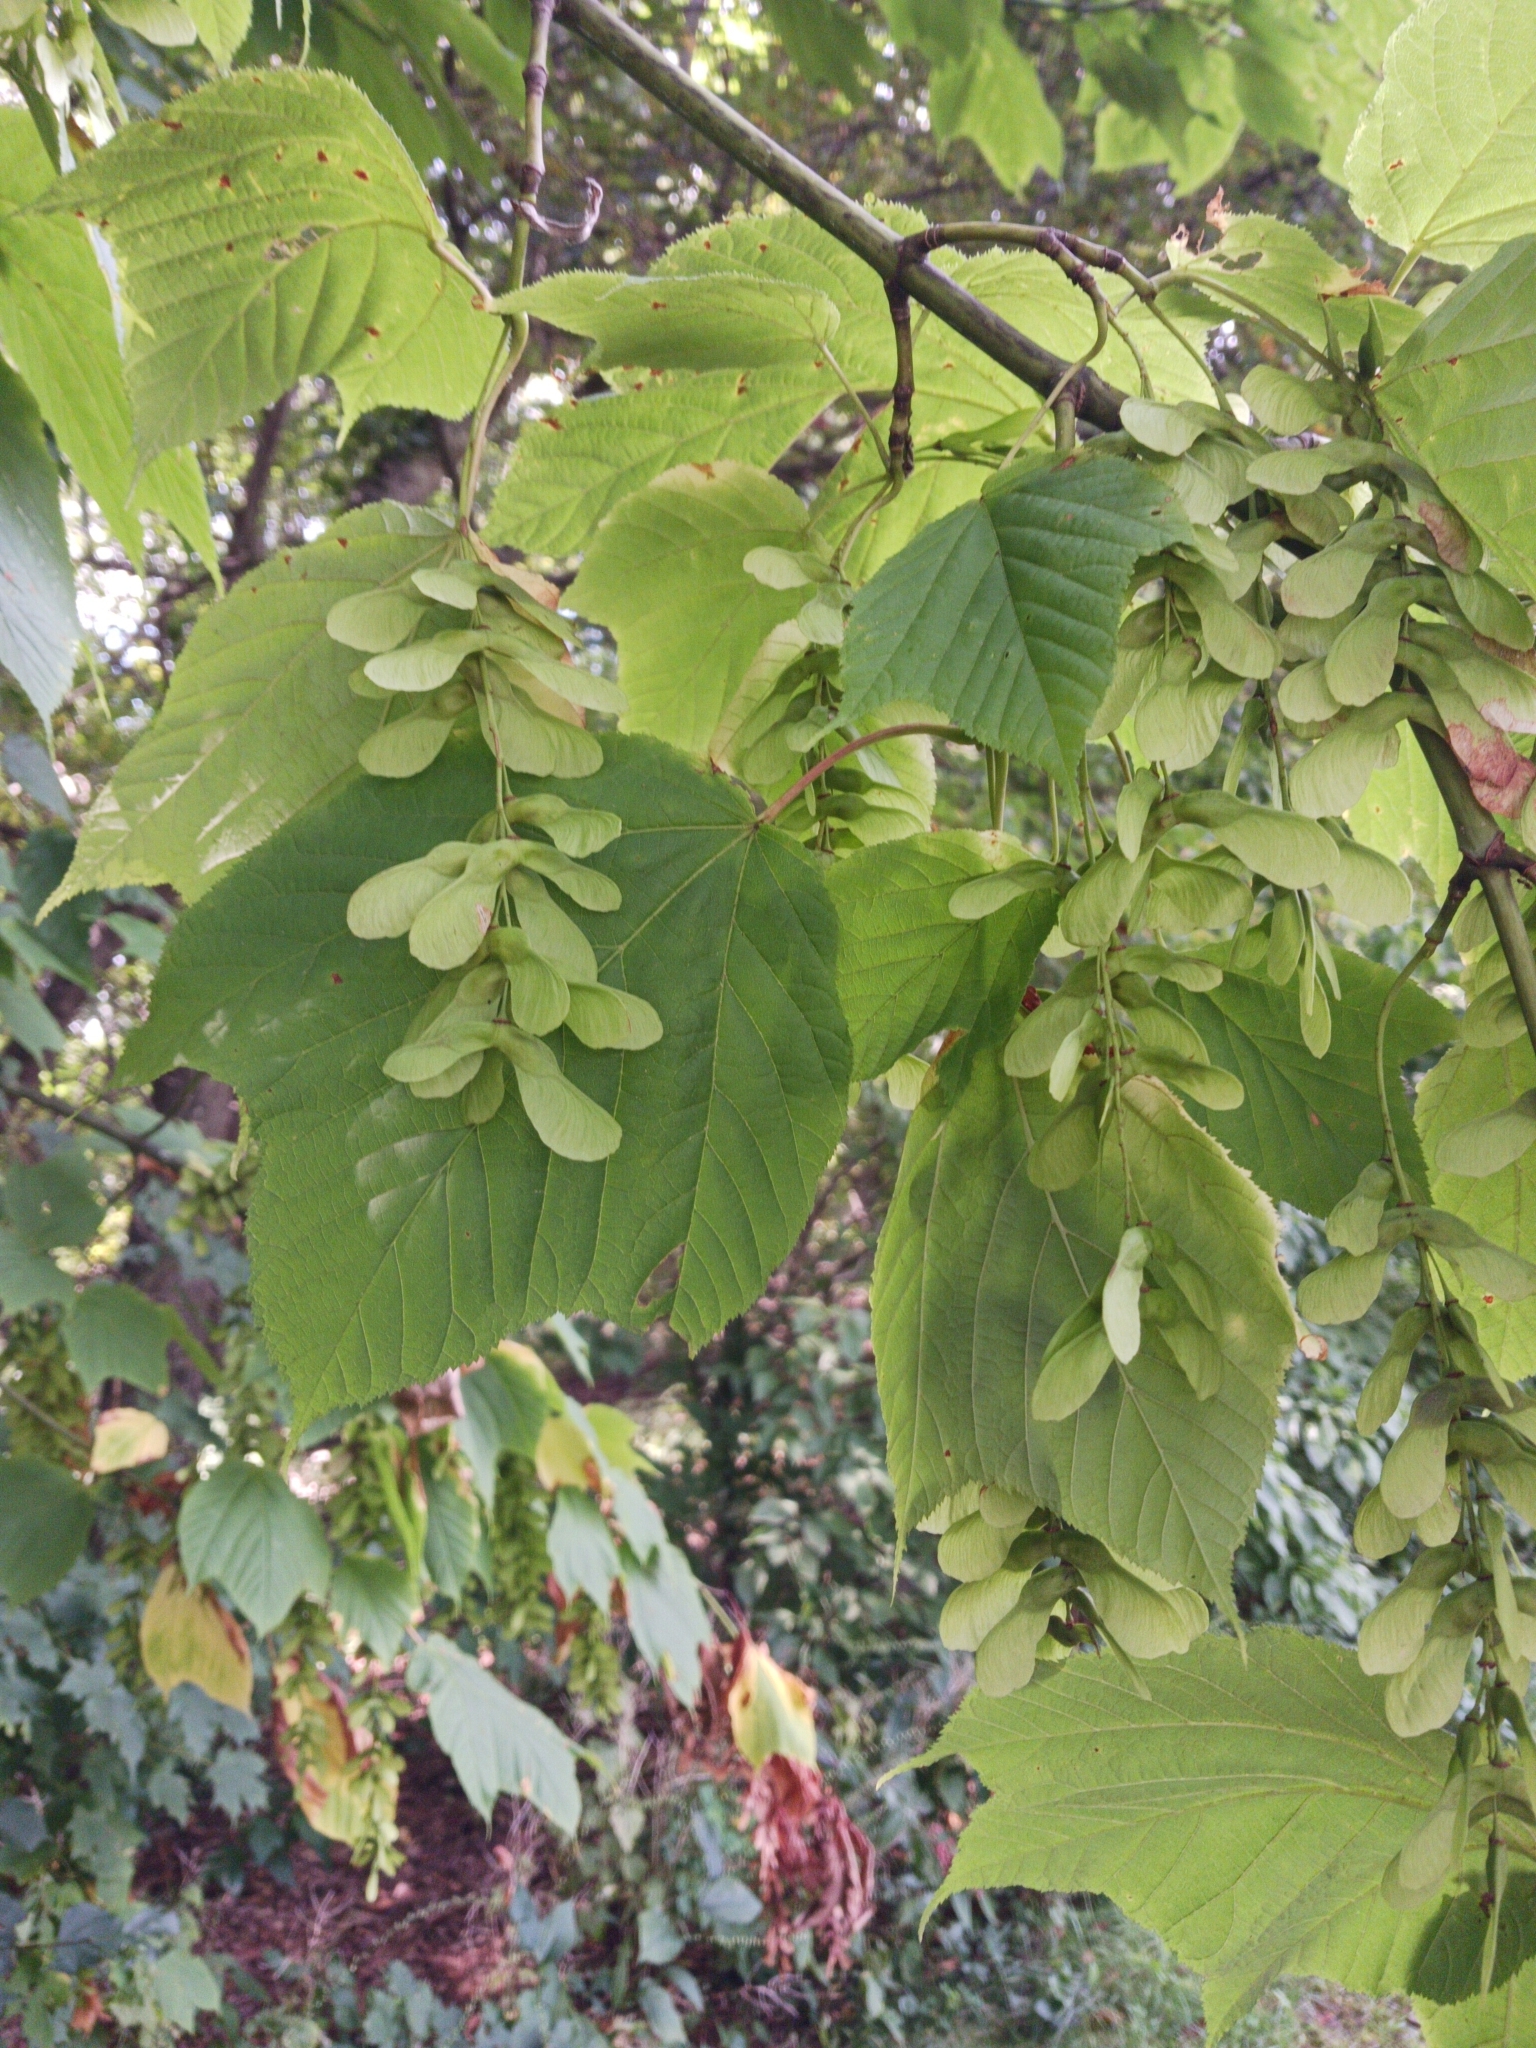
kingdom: Plantae
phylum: Tracheophyta
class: Magnoliopsida
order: Sapindales
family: Sapindaceae
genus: Acer
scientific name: Acer pensylvanicum
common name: Moosewood
